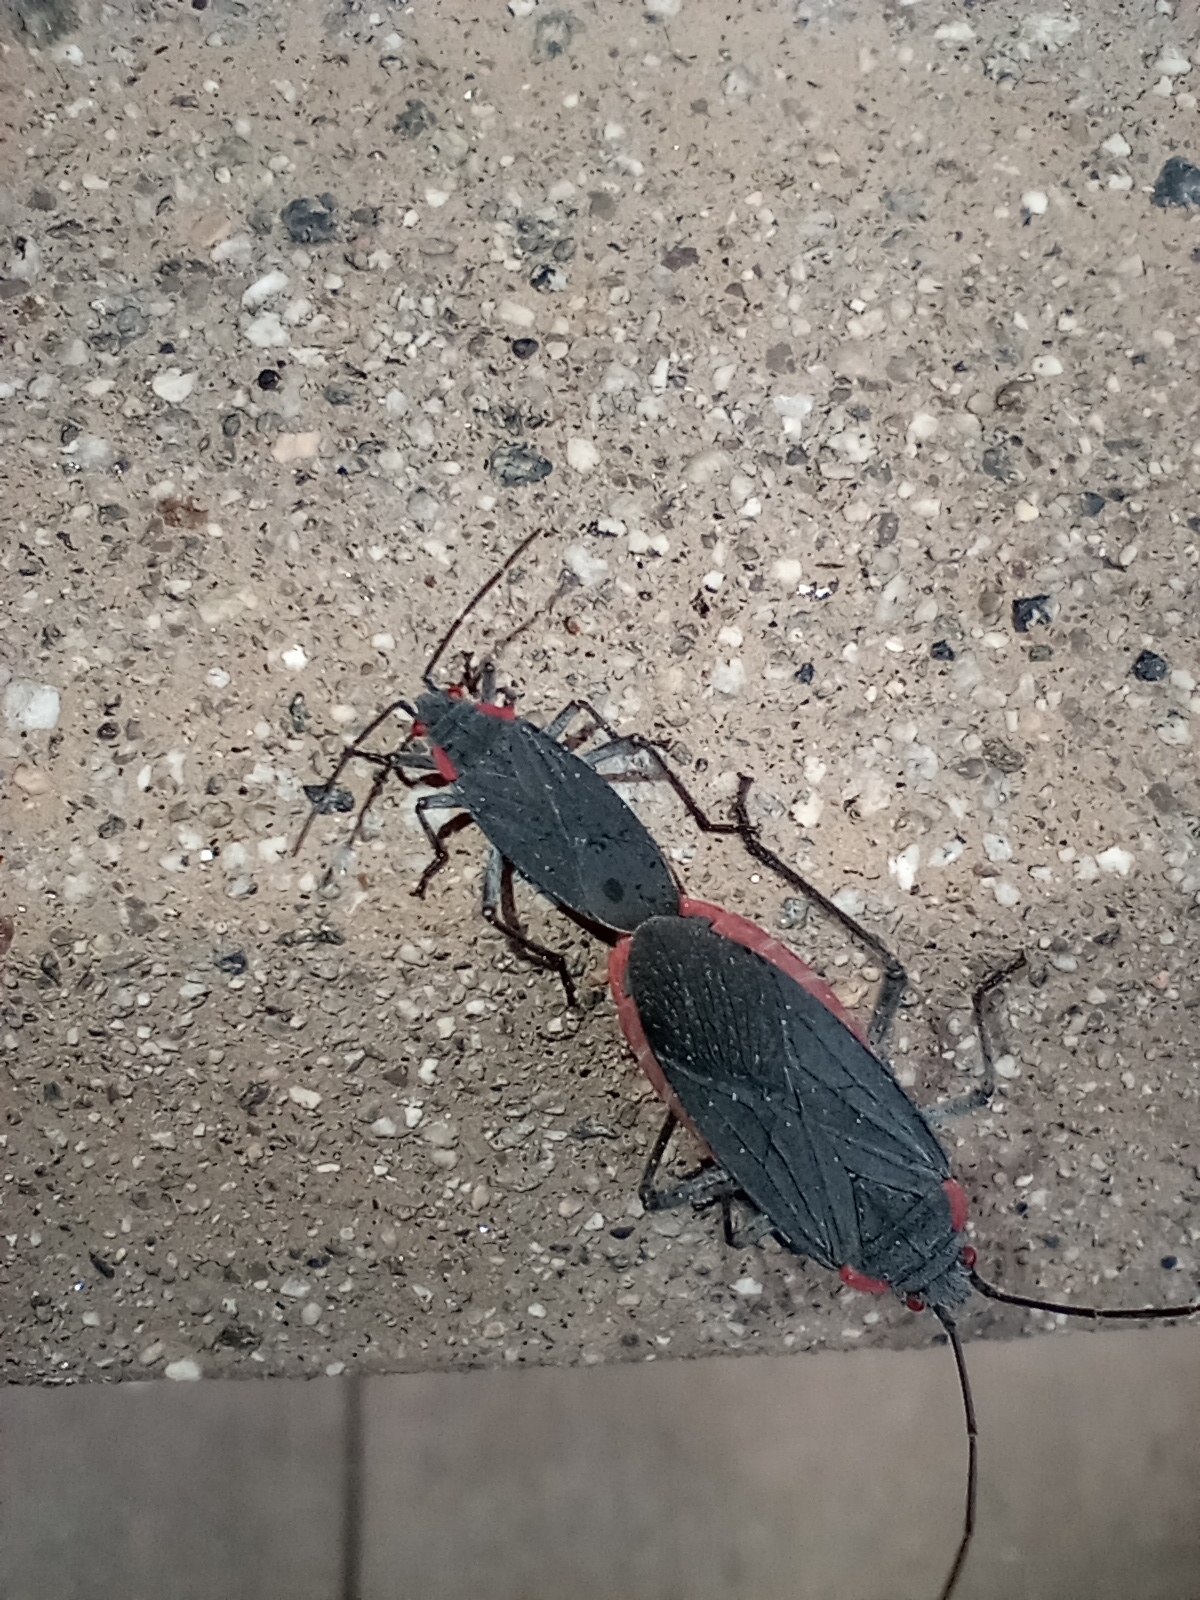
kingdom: Animalia
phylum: Arthropoda
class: Insecta
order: Hemiptera
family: Rhopalidae
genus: Jadera
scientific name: Jadera haematoloma
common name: Red-shouldered bug
